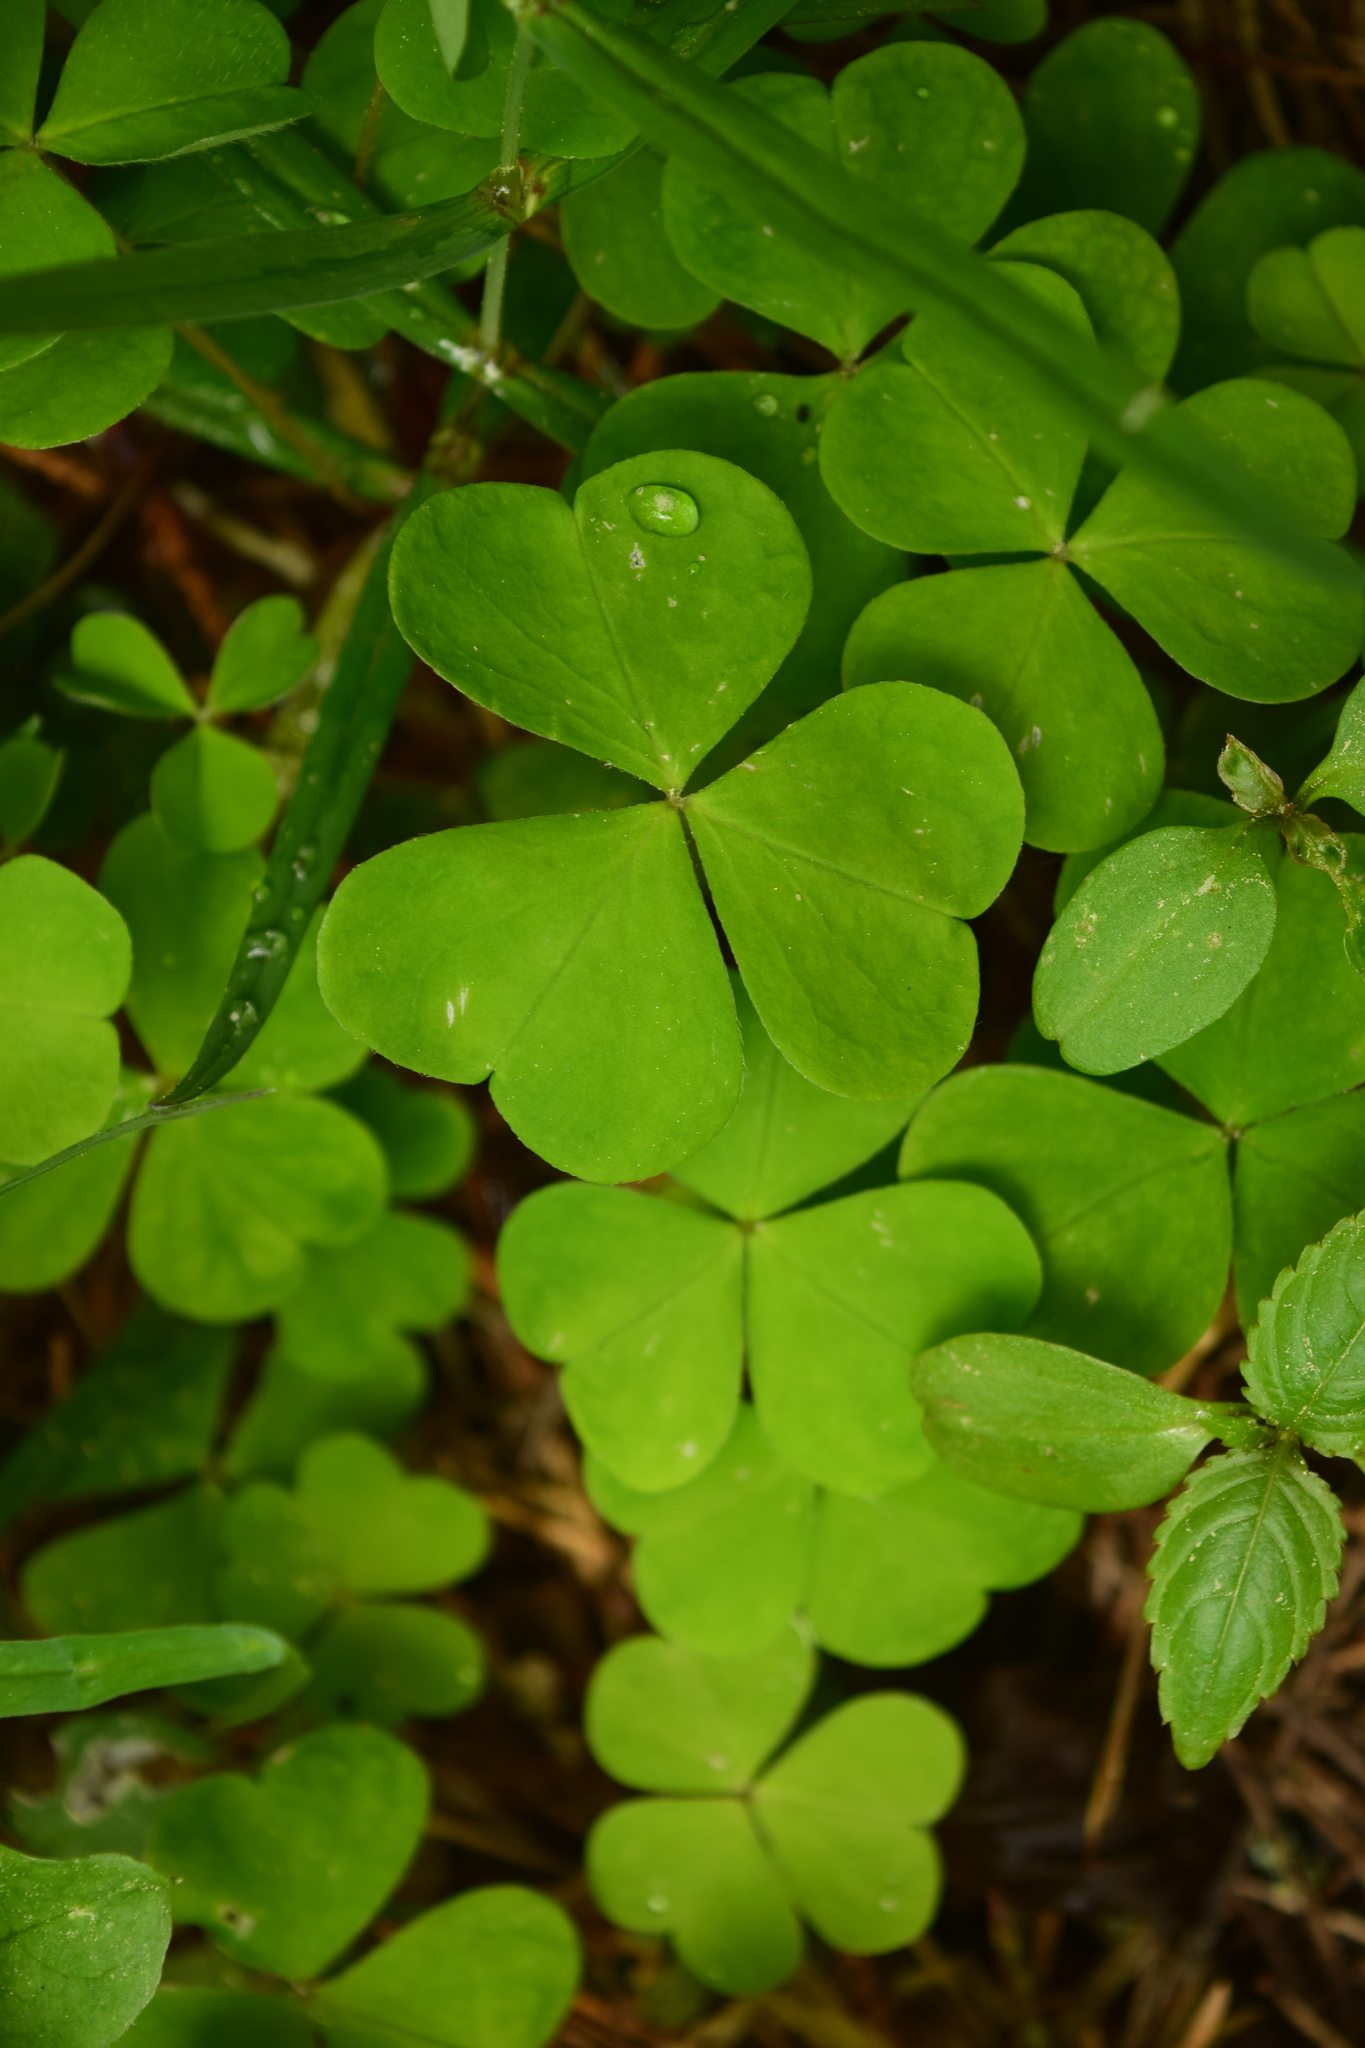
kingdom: Plantae
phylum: Tracheophyta
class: Magnoliopsida
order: Oxalidales
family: Oxalidaceae
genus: Oxalis
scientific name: Oxalis acetosella
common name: Wood-sorrel
